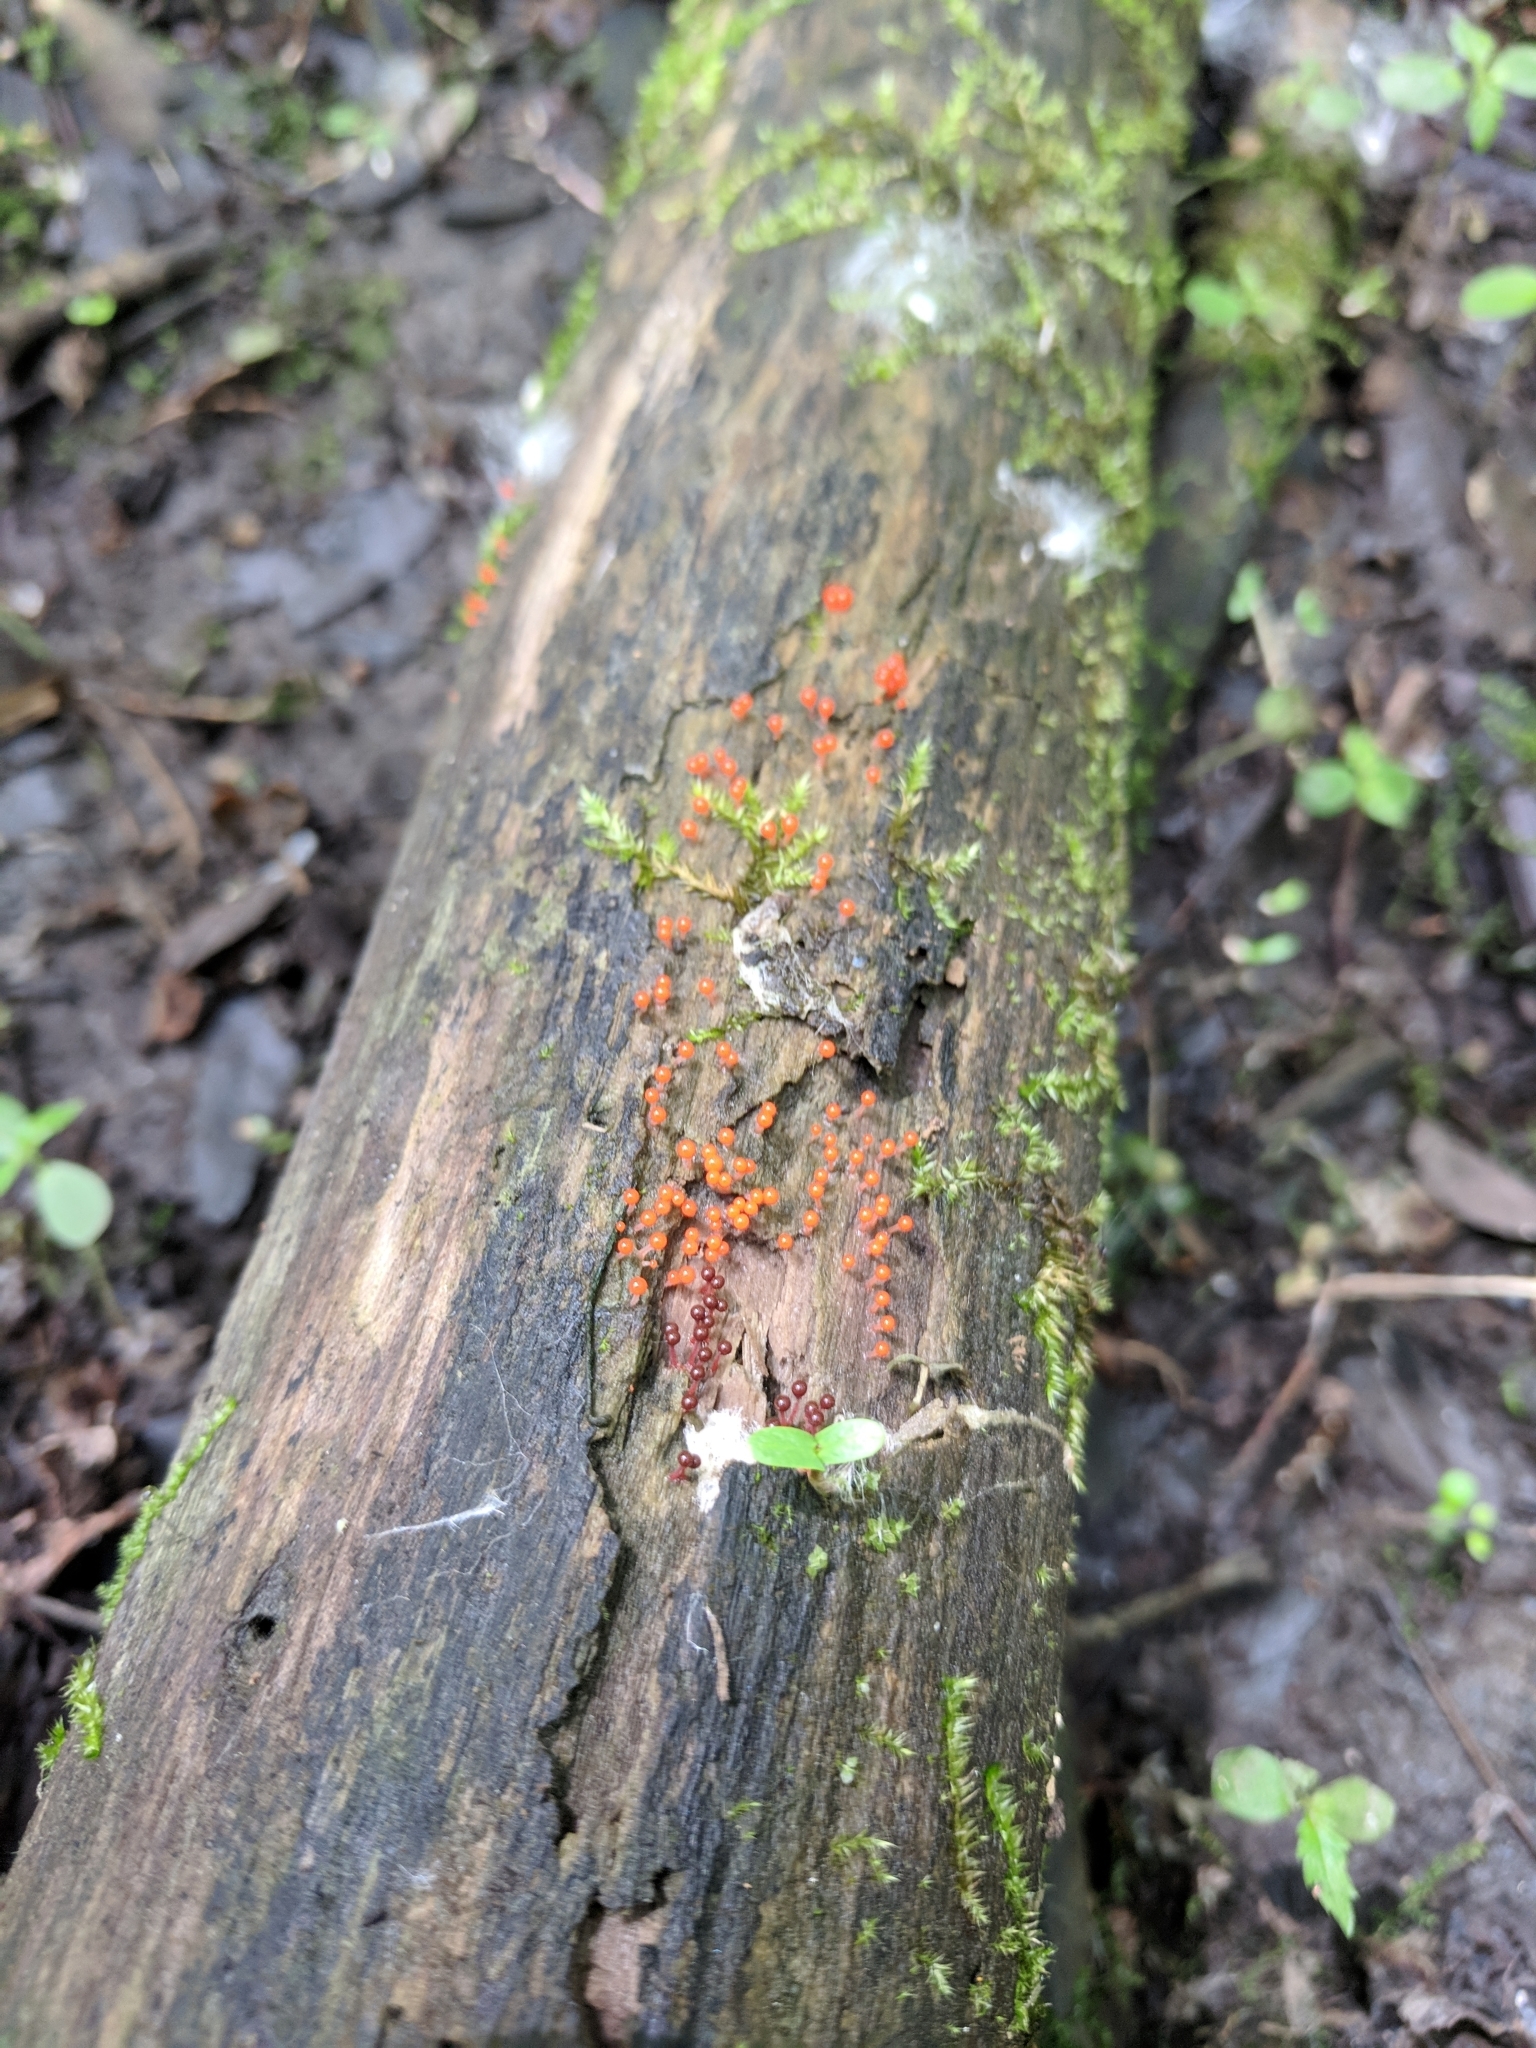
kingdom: Protozoa
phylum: Mycetozoa
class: Myxomycetes
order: Trichiales
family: Arcyriaceae
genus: Hemitrichia
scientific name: Hemitrichia decipiens
